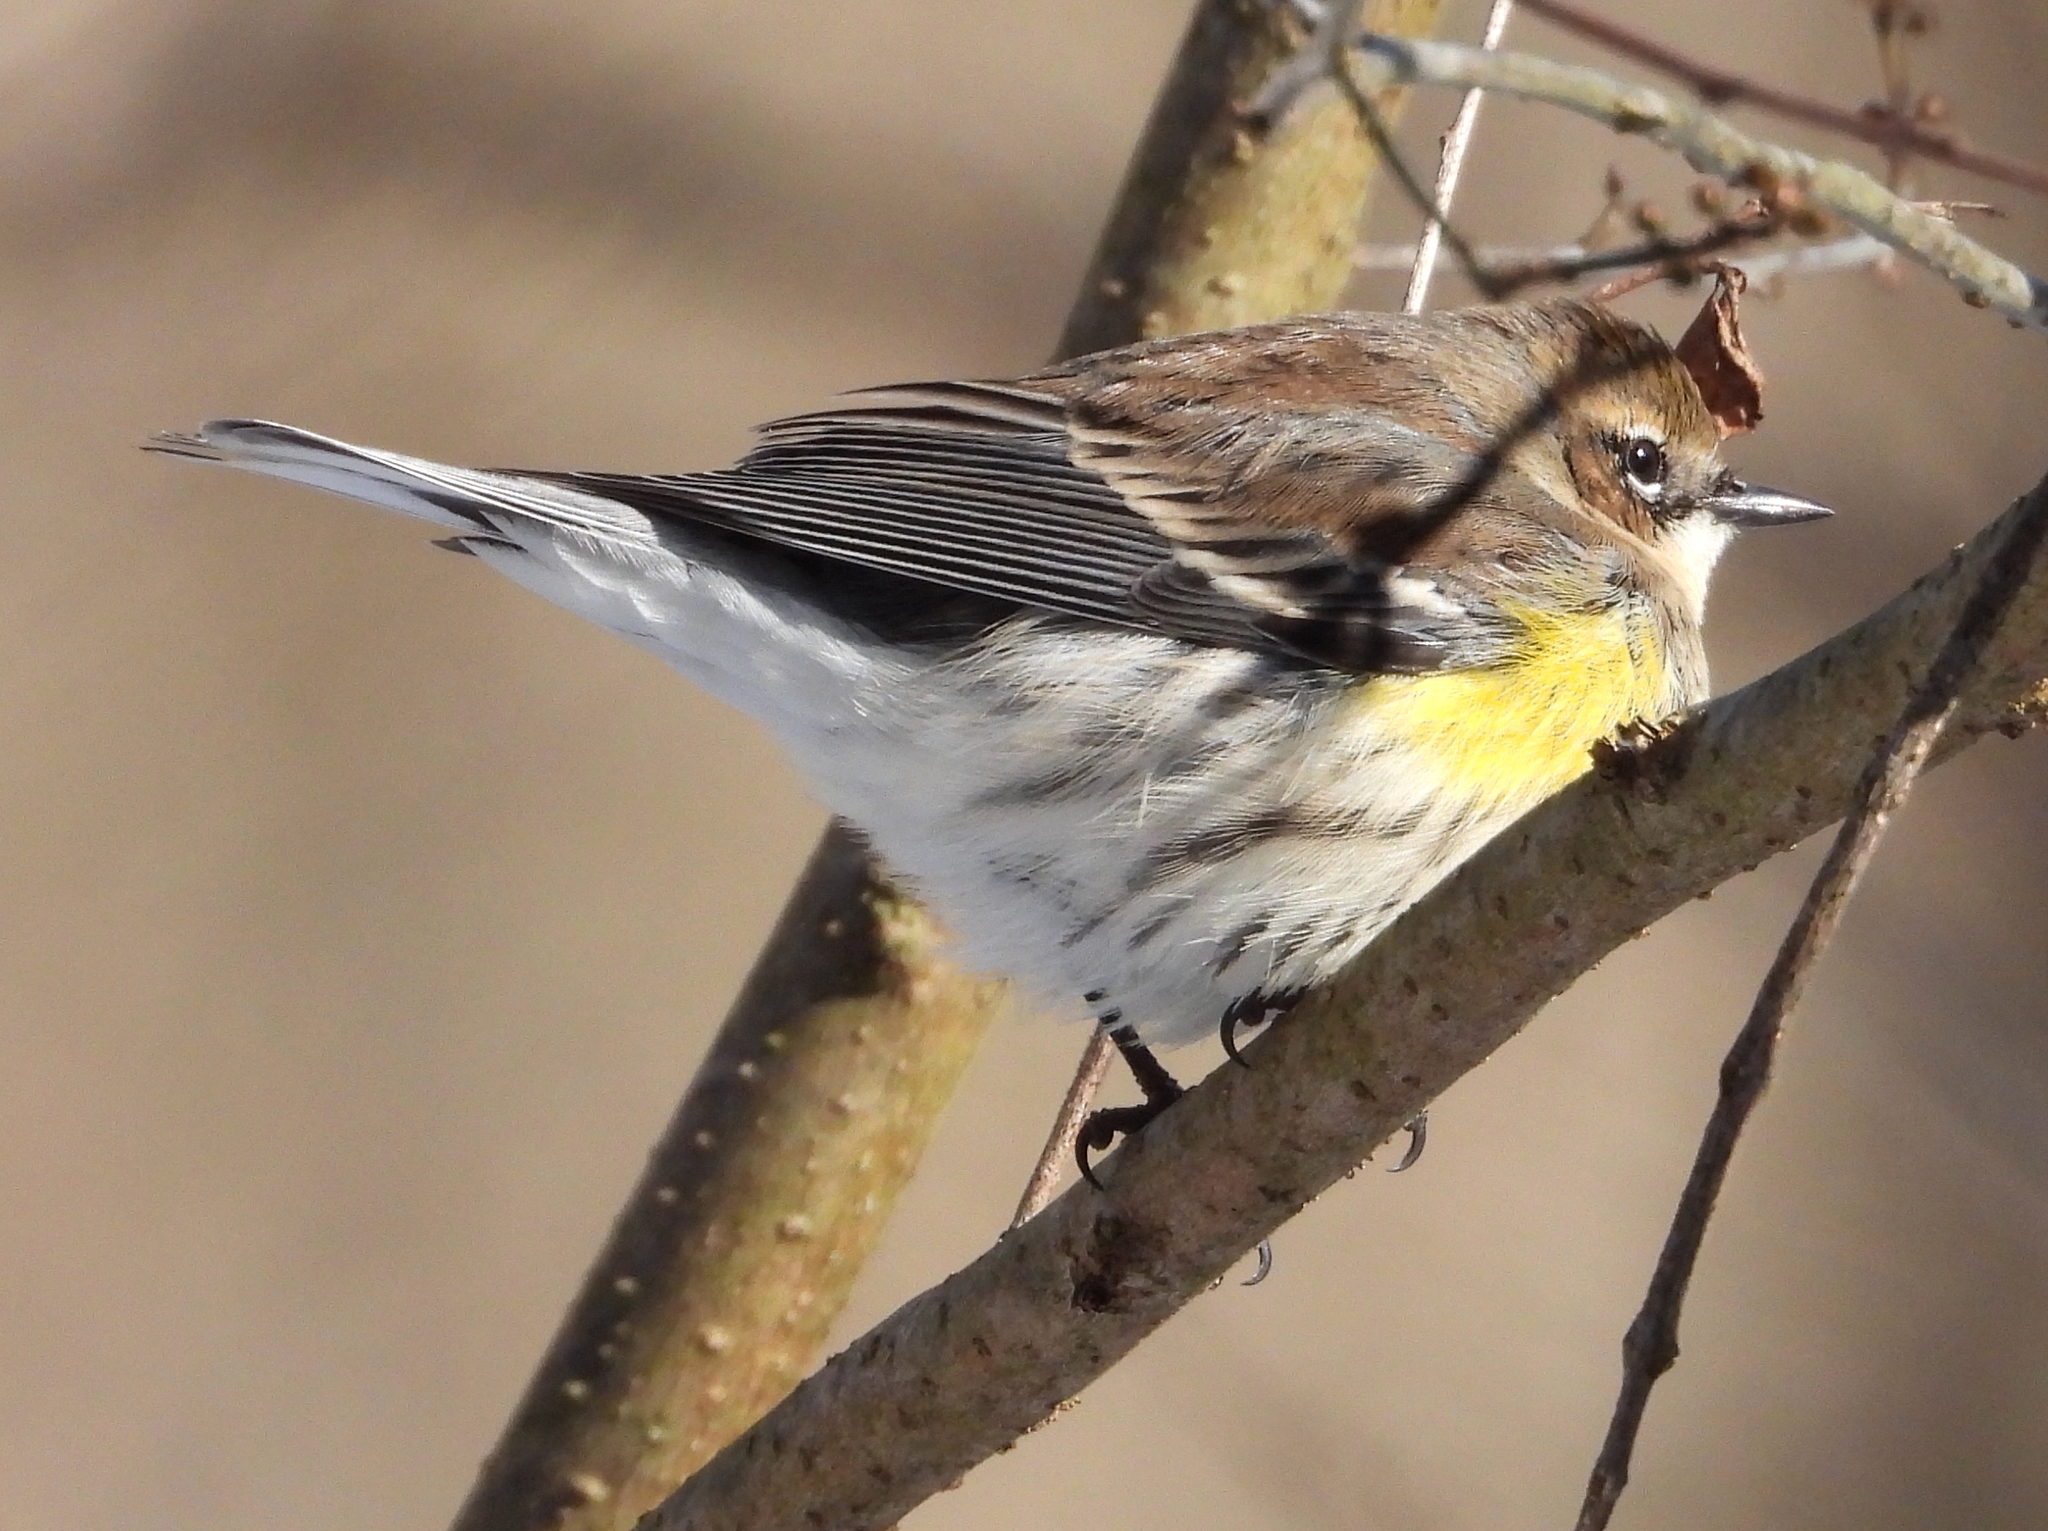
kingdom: Animalia
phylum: Chordata
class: Aves
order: Passeriformes
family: Parulidae
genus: Setophaga
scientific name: Setophaga coronata
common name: Myrtle warbler
